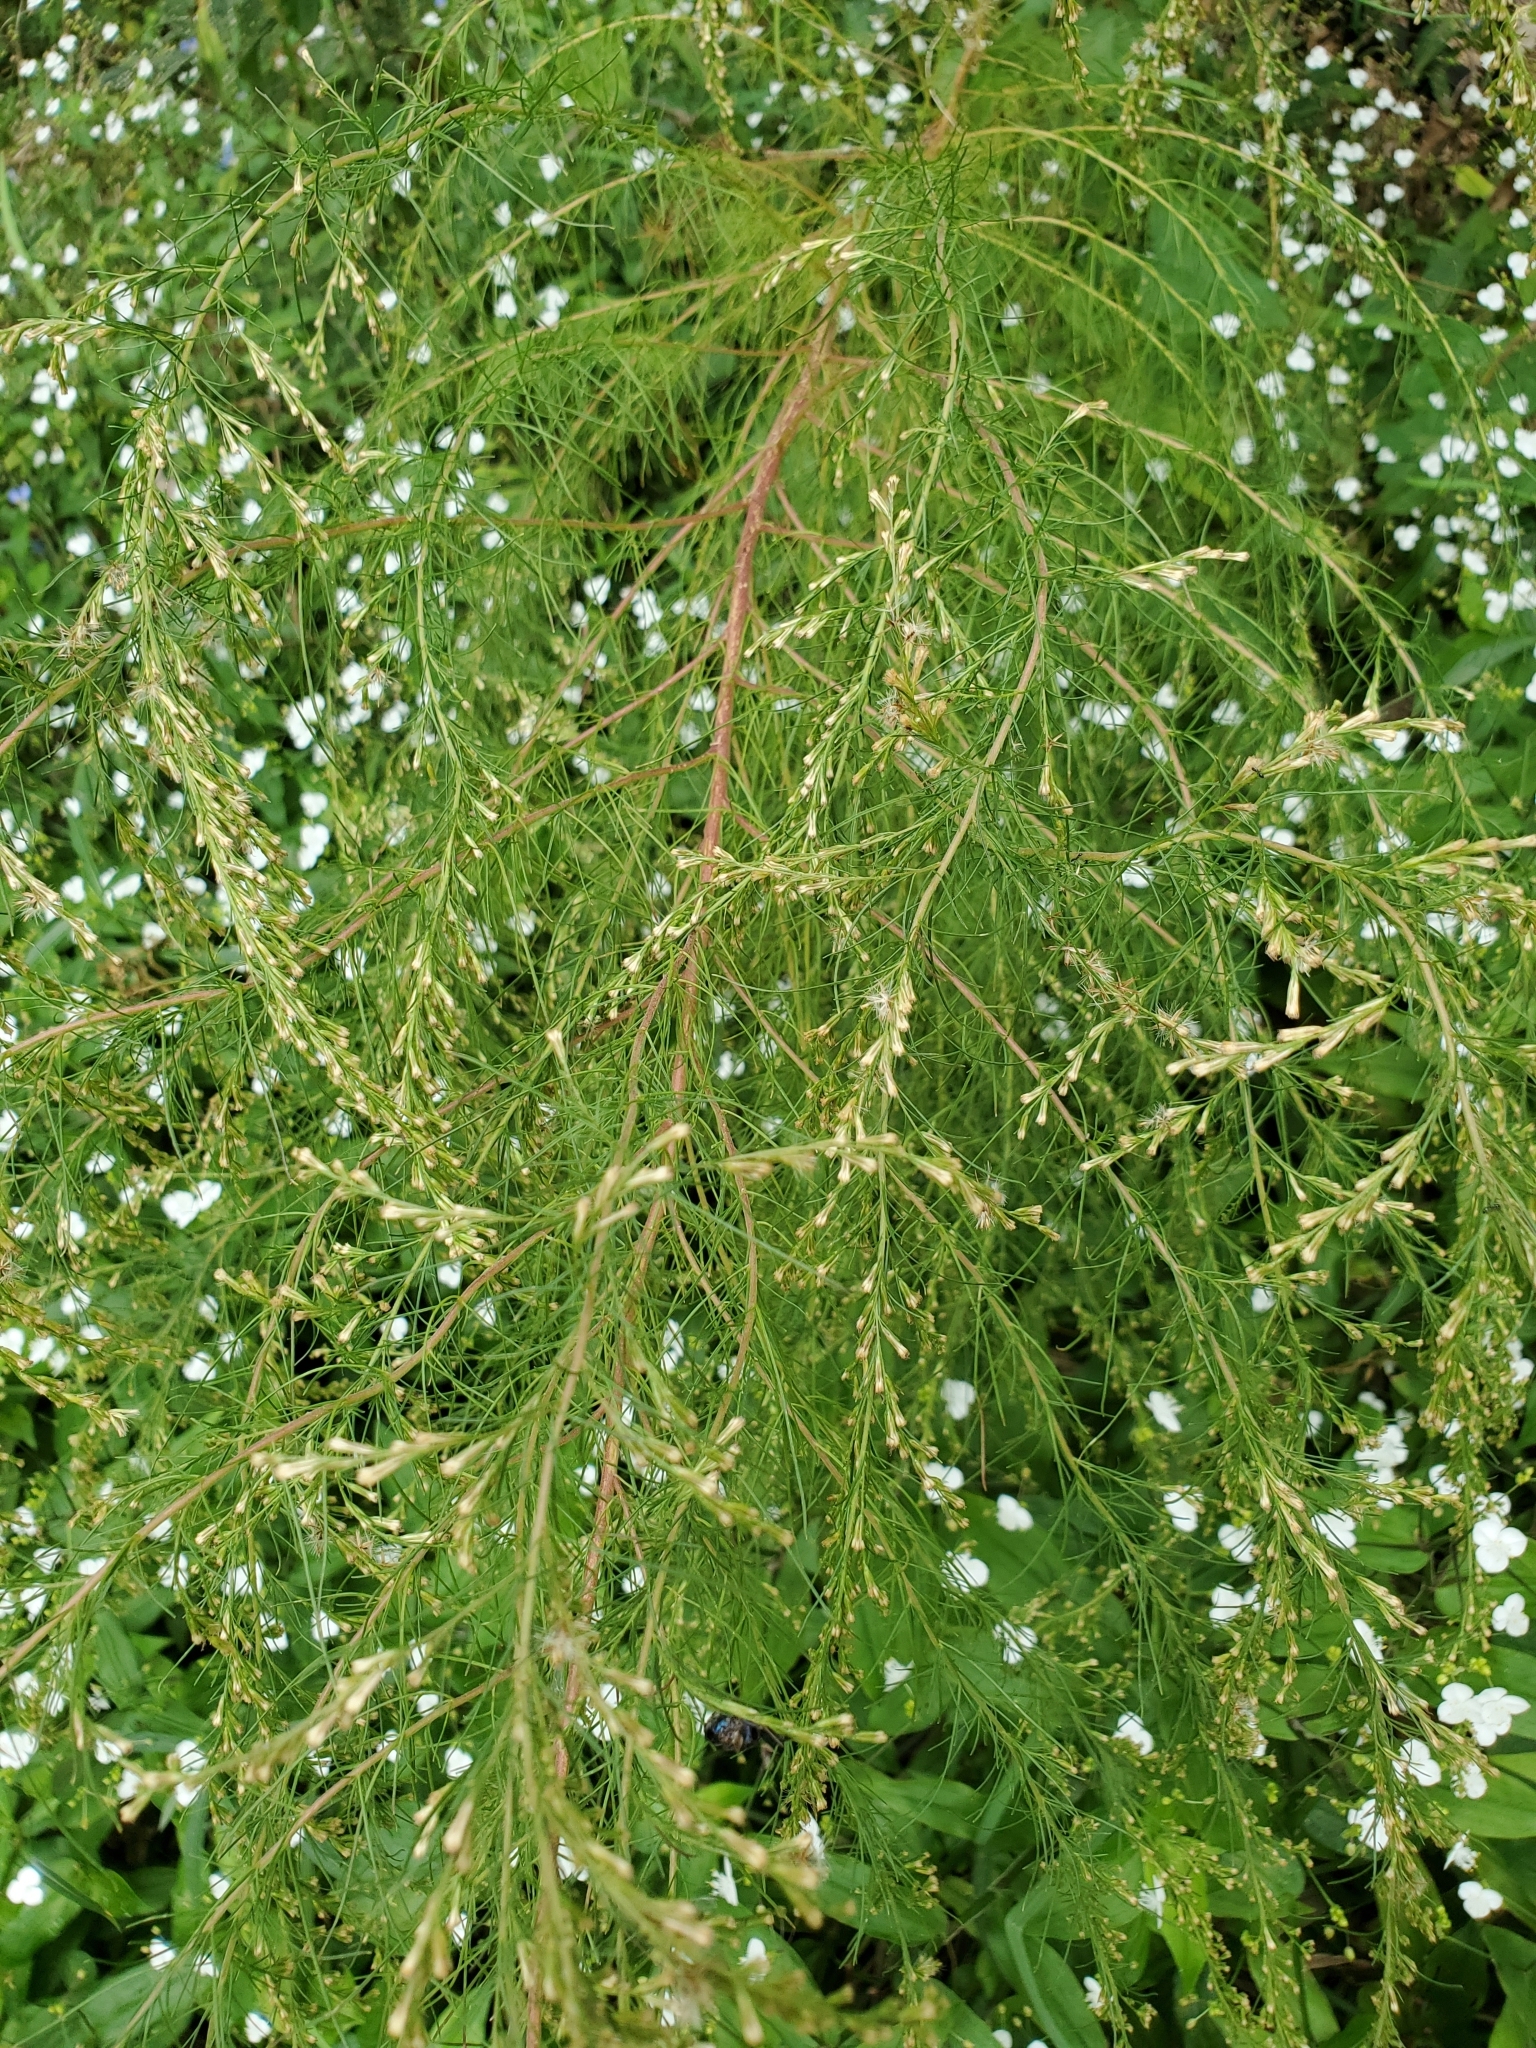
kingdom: Plantae
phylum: Tracheophyta
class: Magnoliopsida
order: Asterales
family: Asteraceae
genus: Eupatorium
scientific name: Eupatorium capillifolium
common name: Dog-fennel
